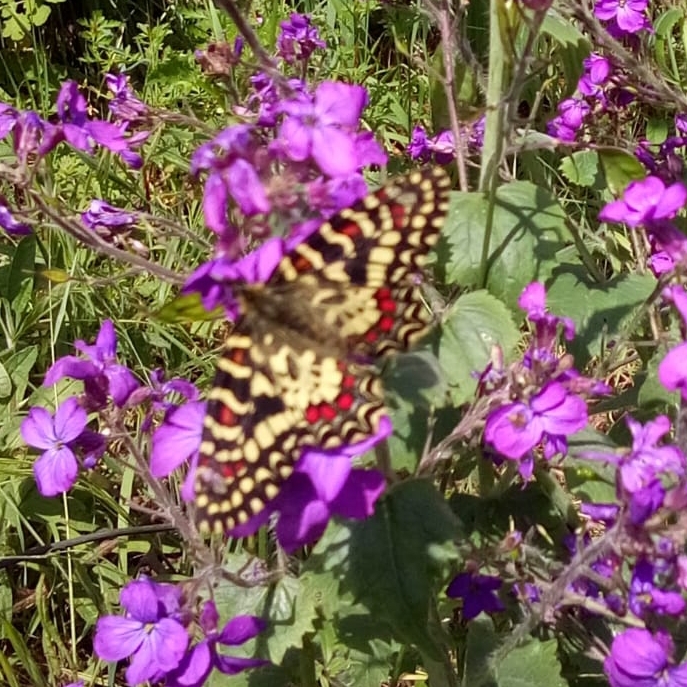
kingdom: Animalia
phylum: Arthropoda
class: Insecta
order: Lepidoptera
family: Papilionidae
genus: Zerynthia
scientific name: Zerynthia rumina
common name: Spanish festoon
